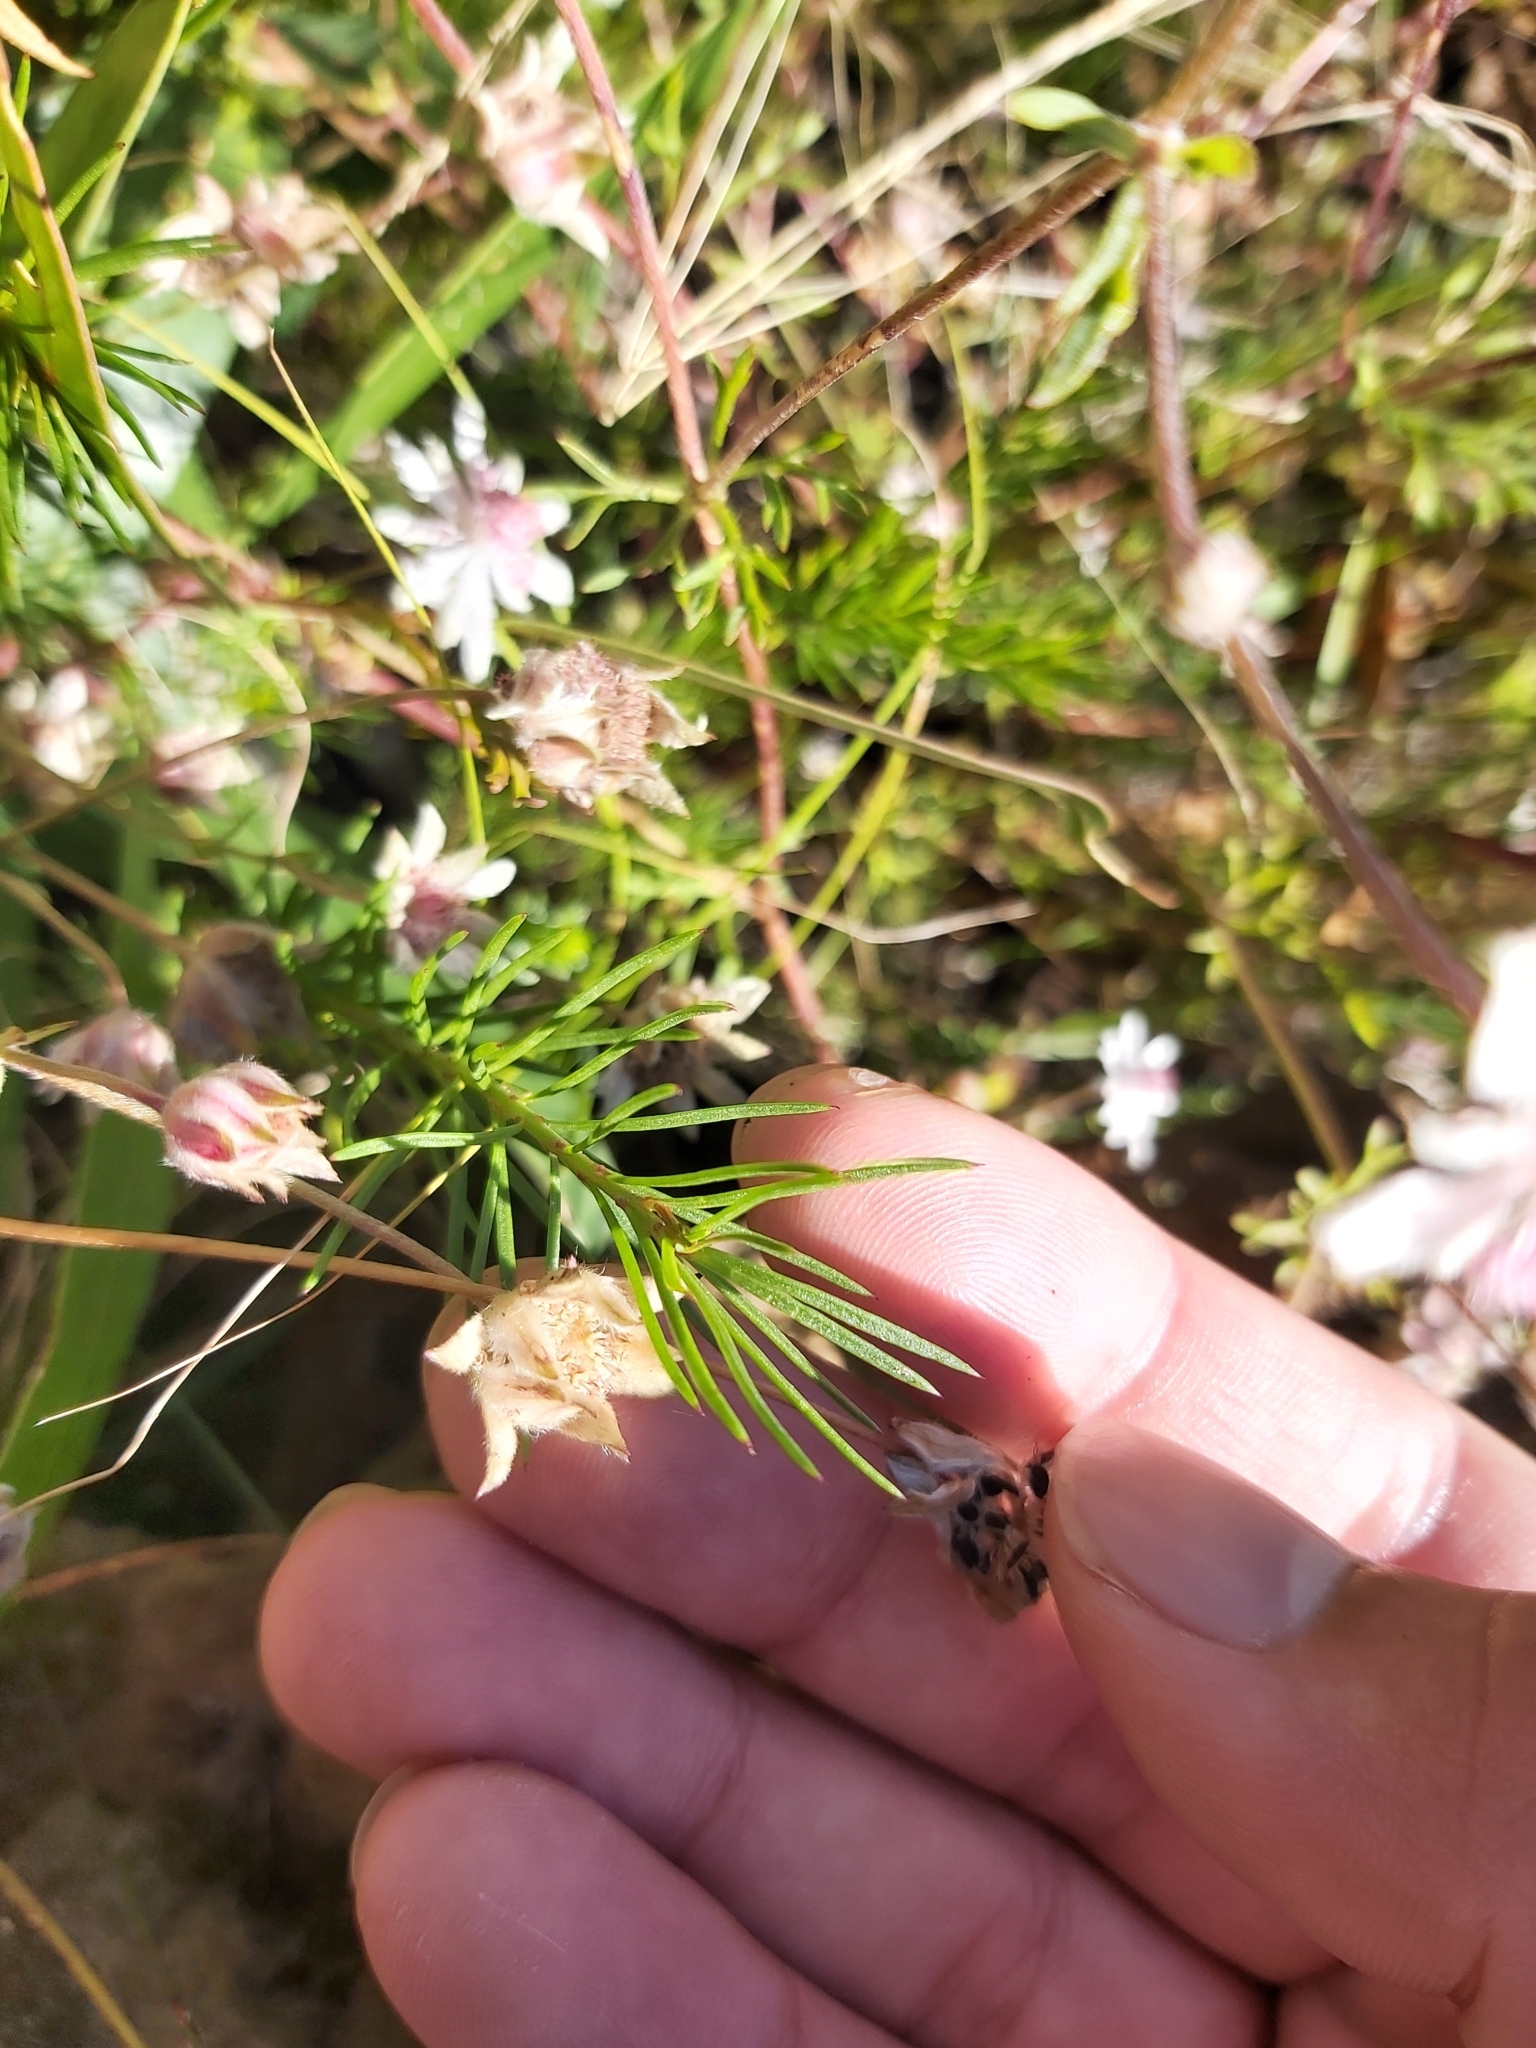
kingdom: Plantae
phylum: Tracheophyta
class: Magnoliopsida
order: Apiales
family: Apiaceae
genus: Actinotus
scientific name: Actinotus forsythii
